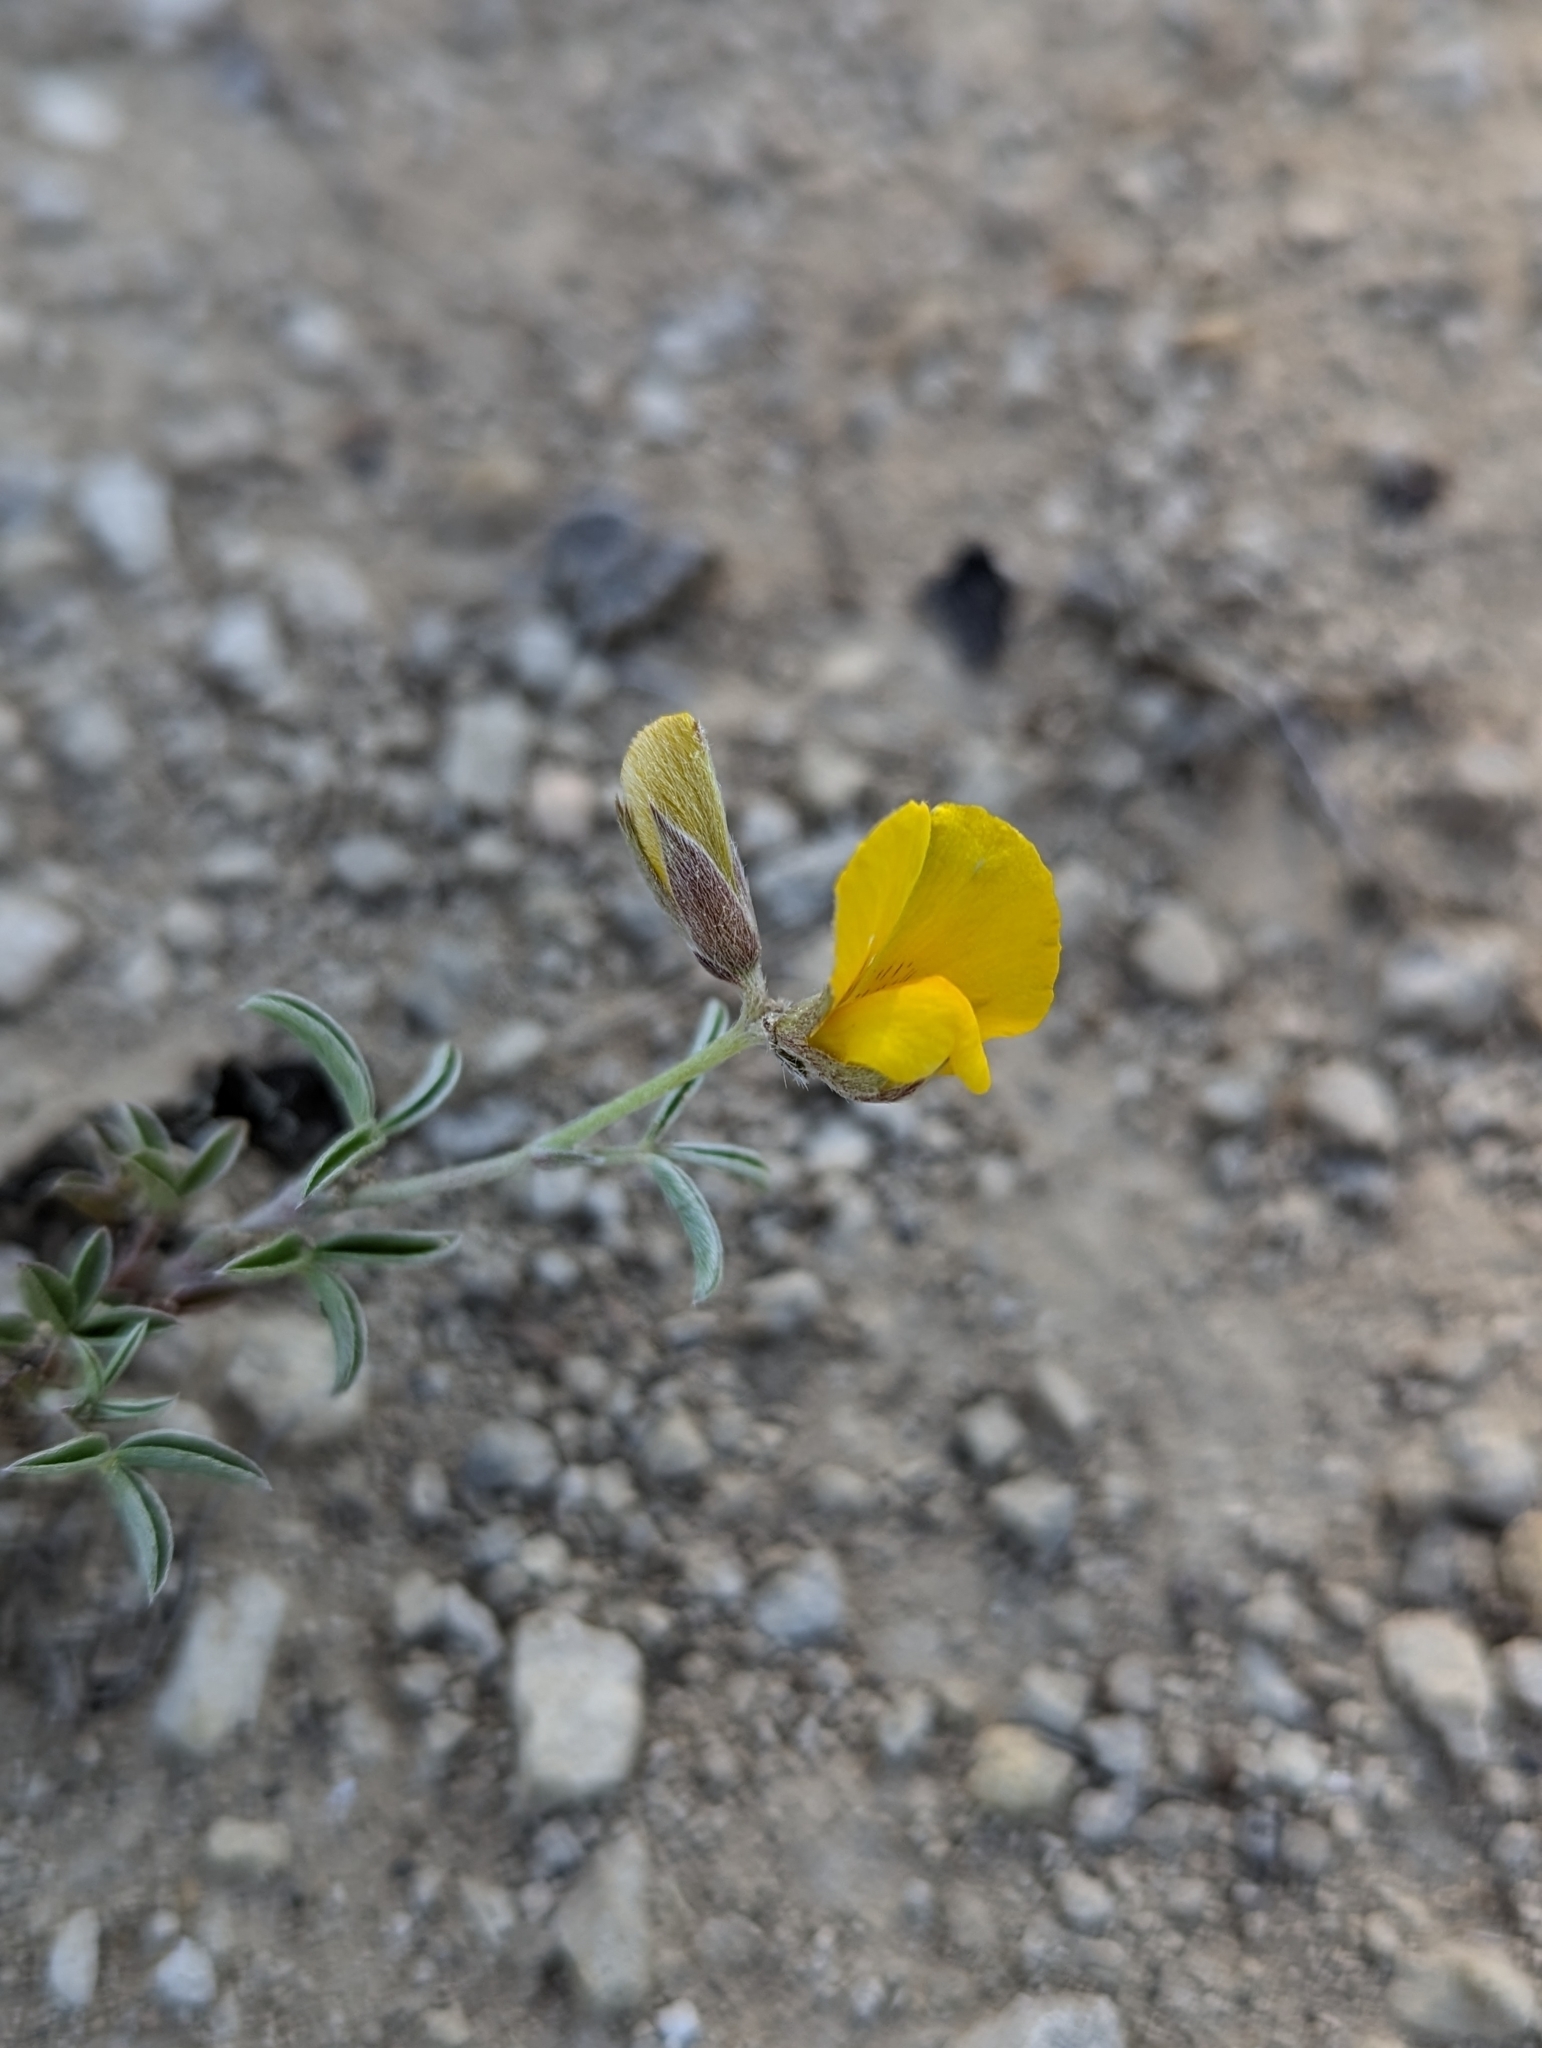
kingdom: Plantae
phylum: Tracheophyta
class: Magnoliopsida
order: Fabales
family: Fabaceae
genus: Argyrolobium
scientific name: Argyrolobium zanonii
